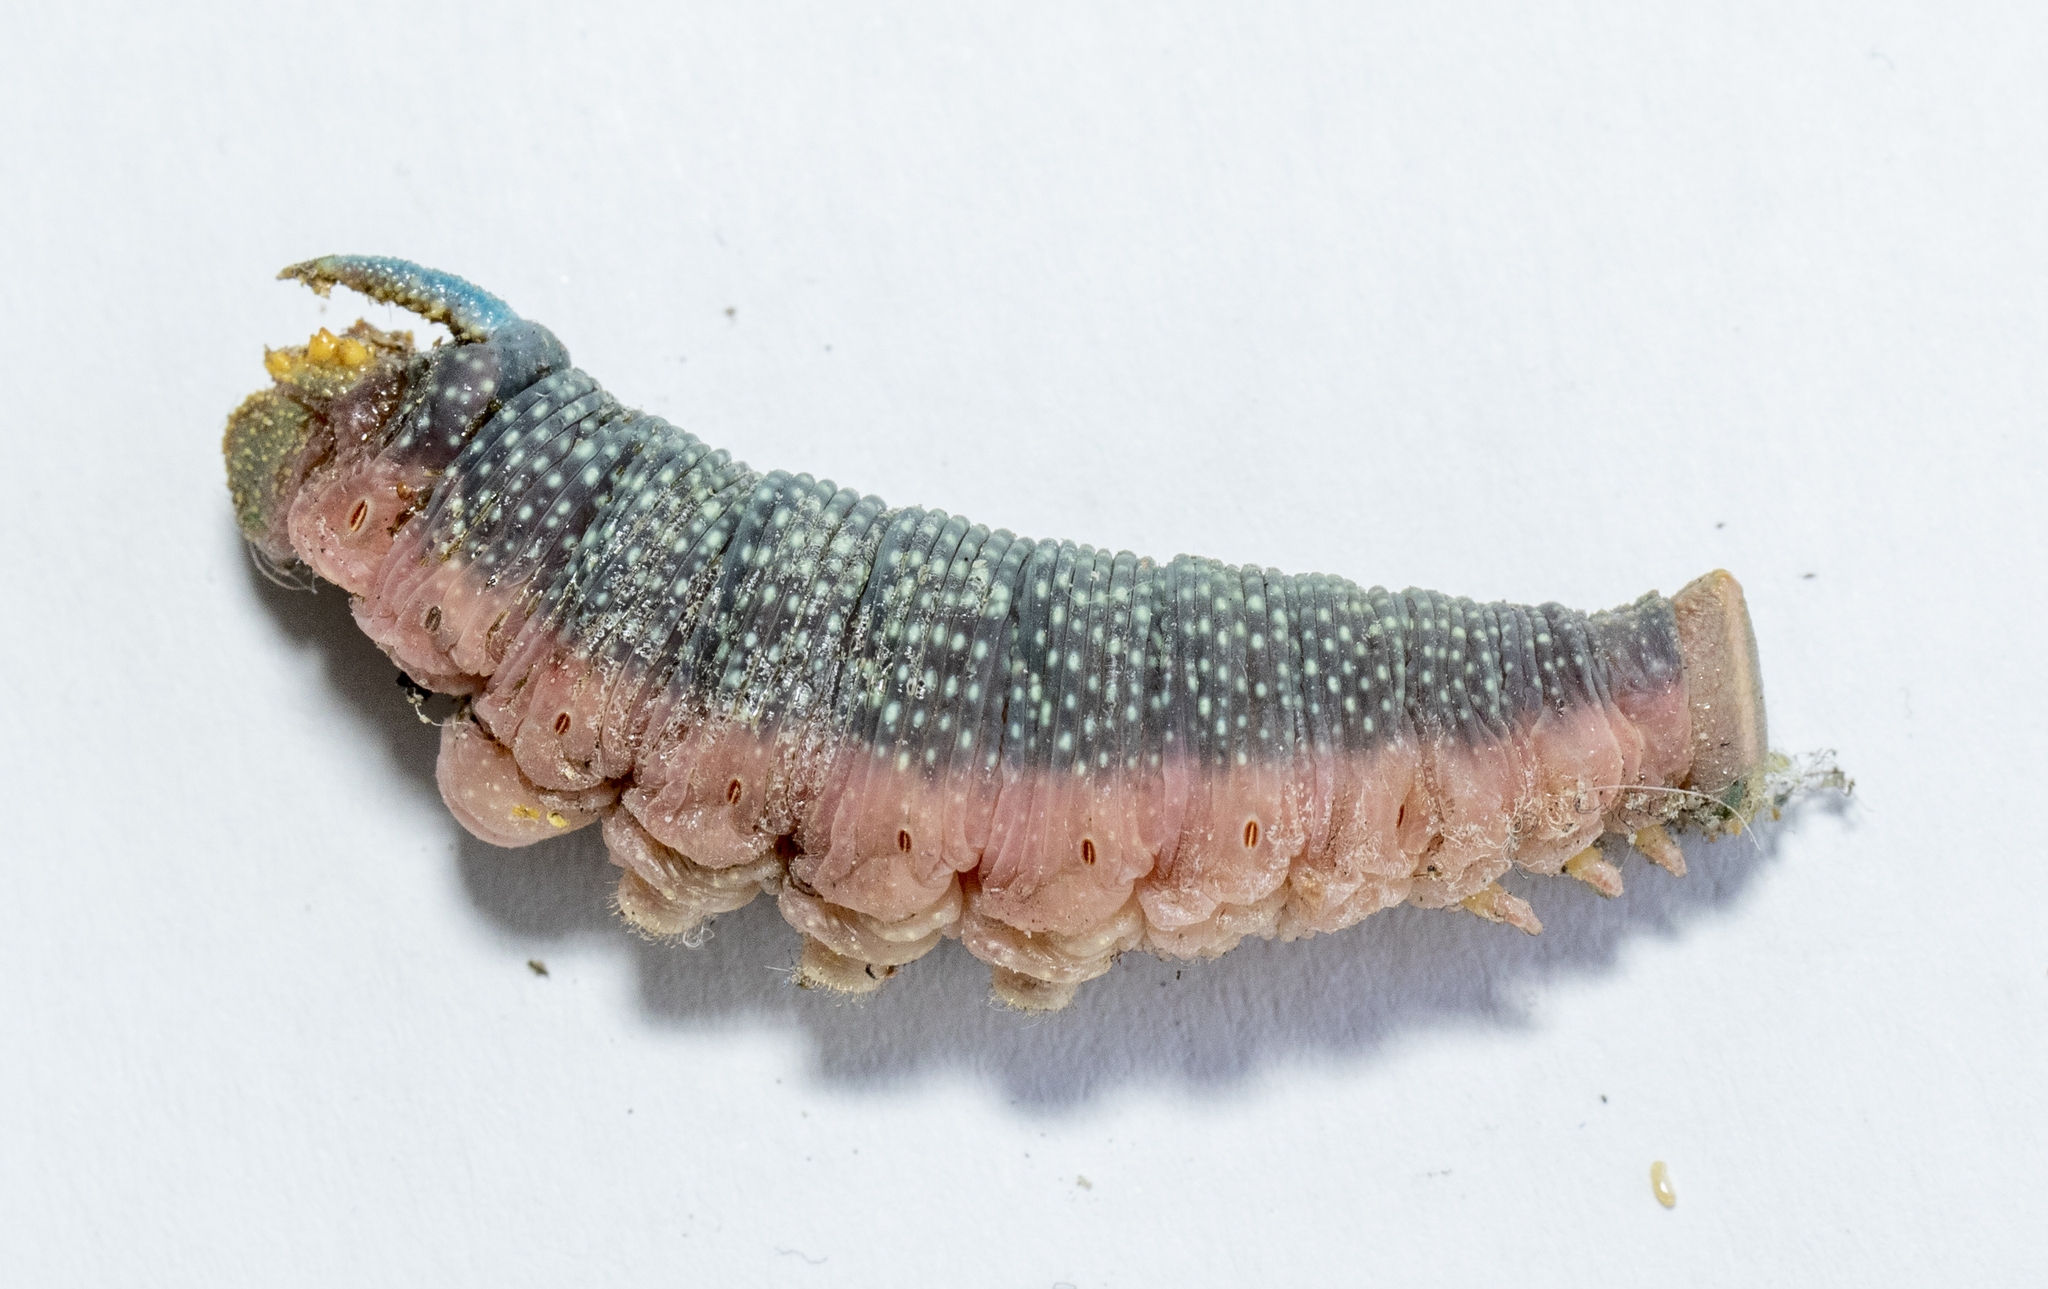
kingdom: Animalia
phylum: Arthropoda
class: Insecta
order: Lepidoptera
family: Sphingidae
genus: Mimas
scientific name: Mimas tiliae
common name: Lime hawk-moth
